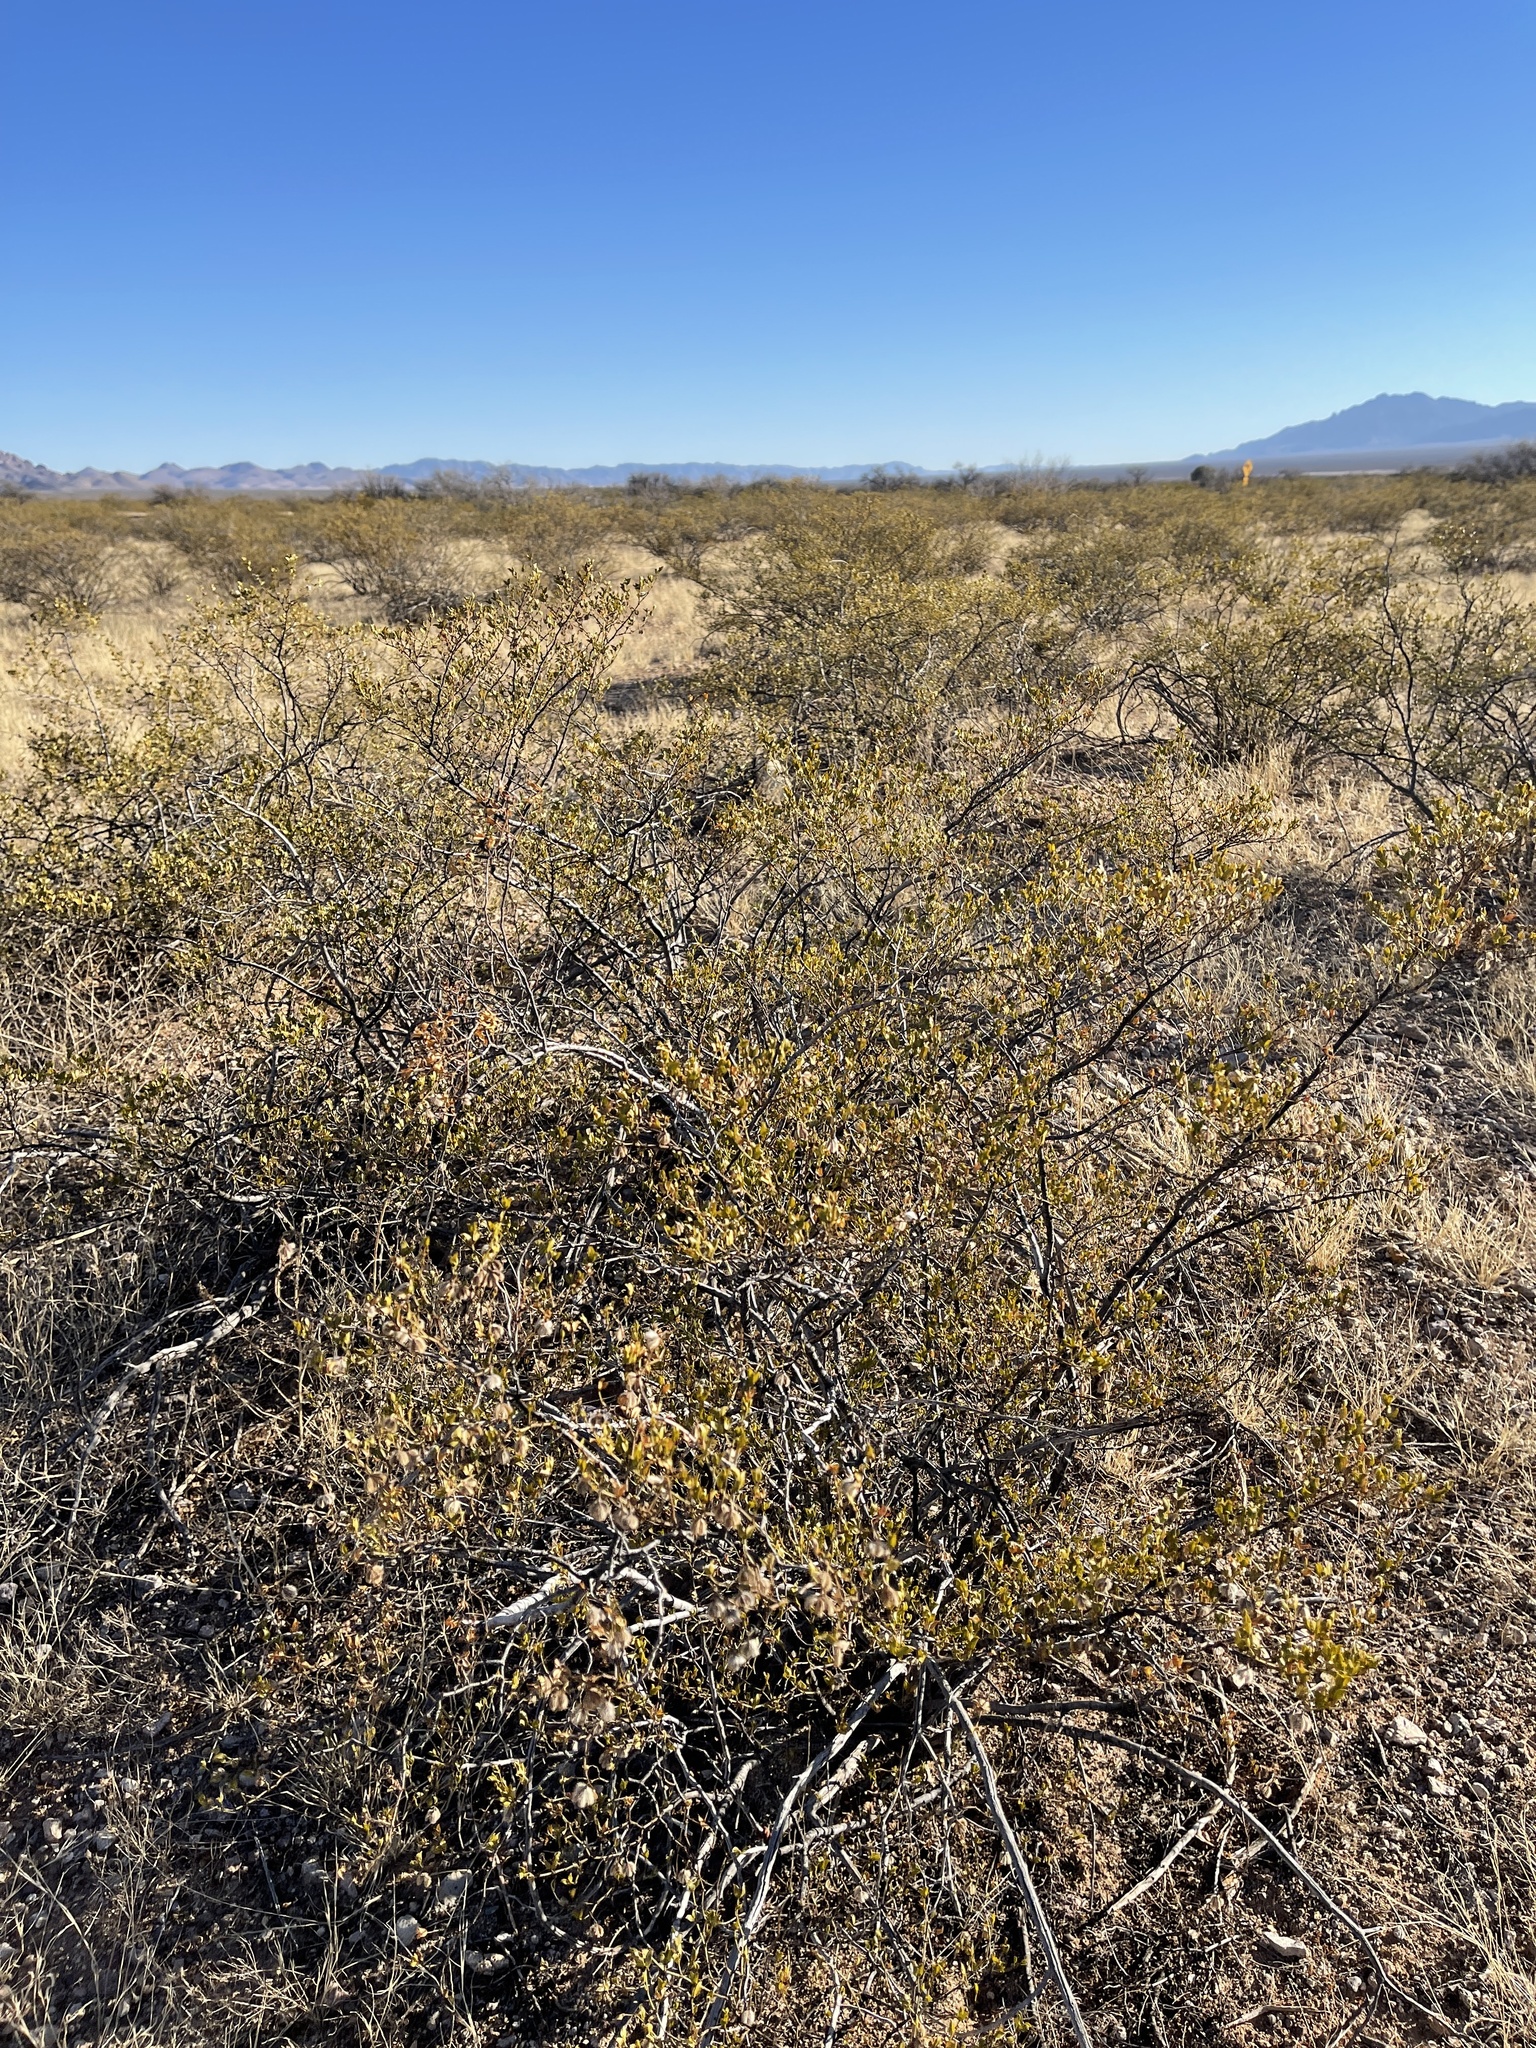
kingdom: Plantae
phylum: Tracheophyta
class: Magnoliopsida
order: Zygophyllales
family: Zygophyllaceae
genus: Larrea
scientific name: Larrea tridentata
